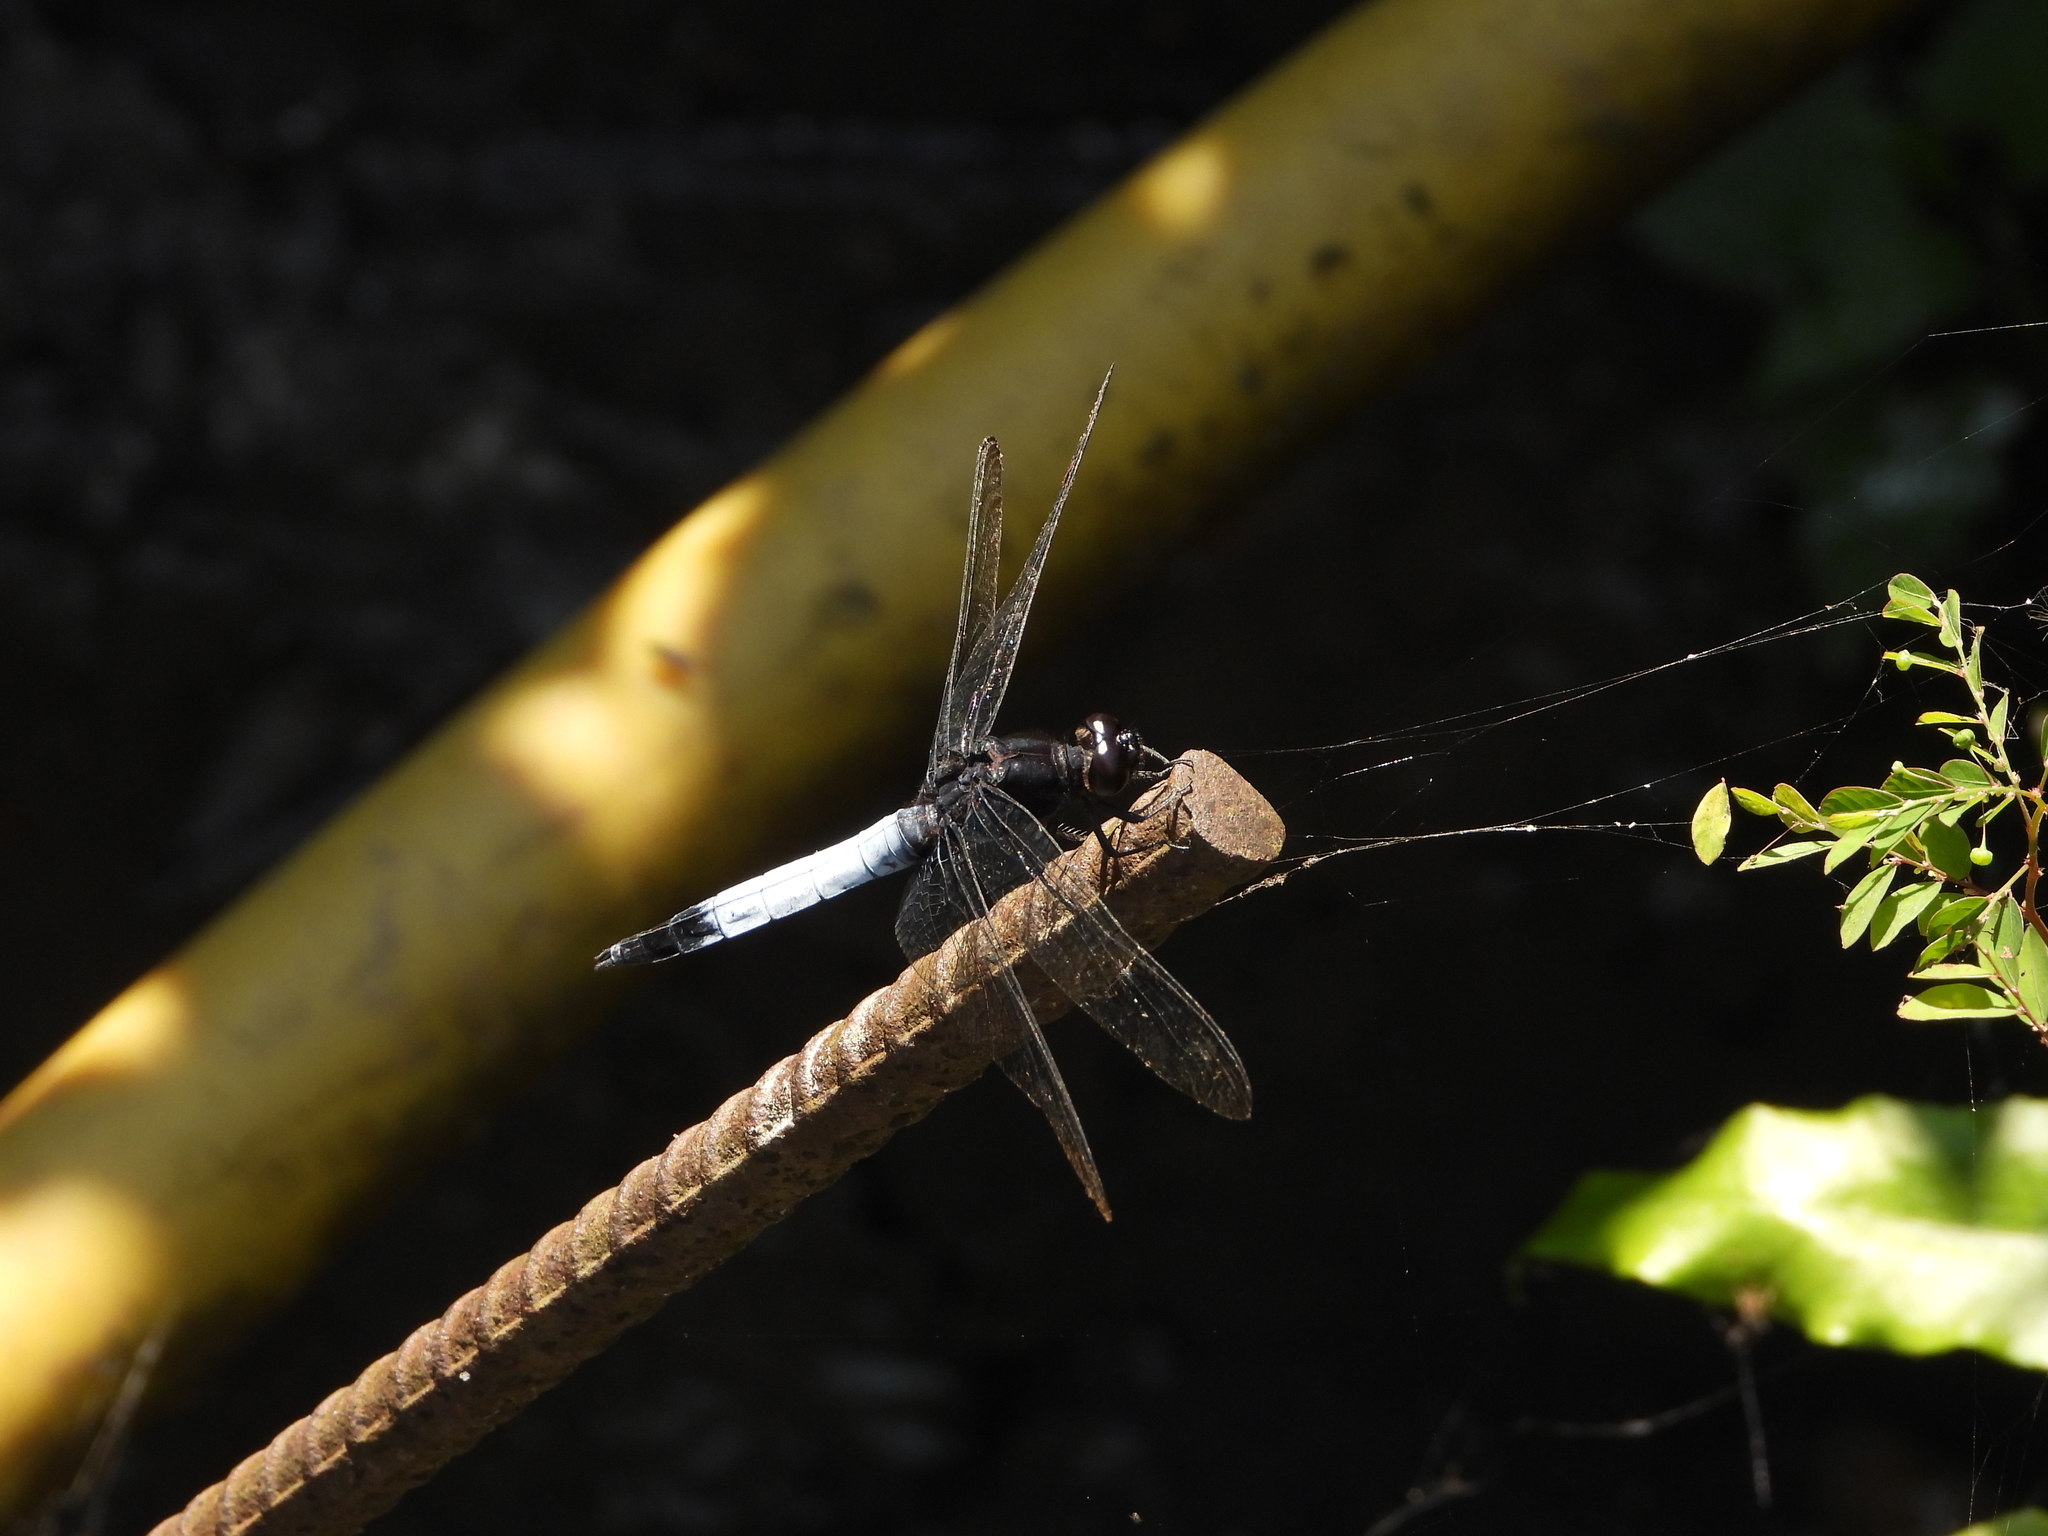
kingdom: Animalia
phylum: Arthropoda
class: Insecta
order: Odonata
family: Libellulidae
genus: Orthetrum
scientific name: Orthetrum triangulare
